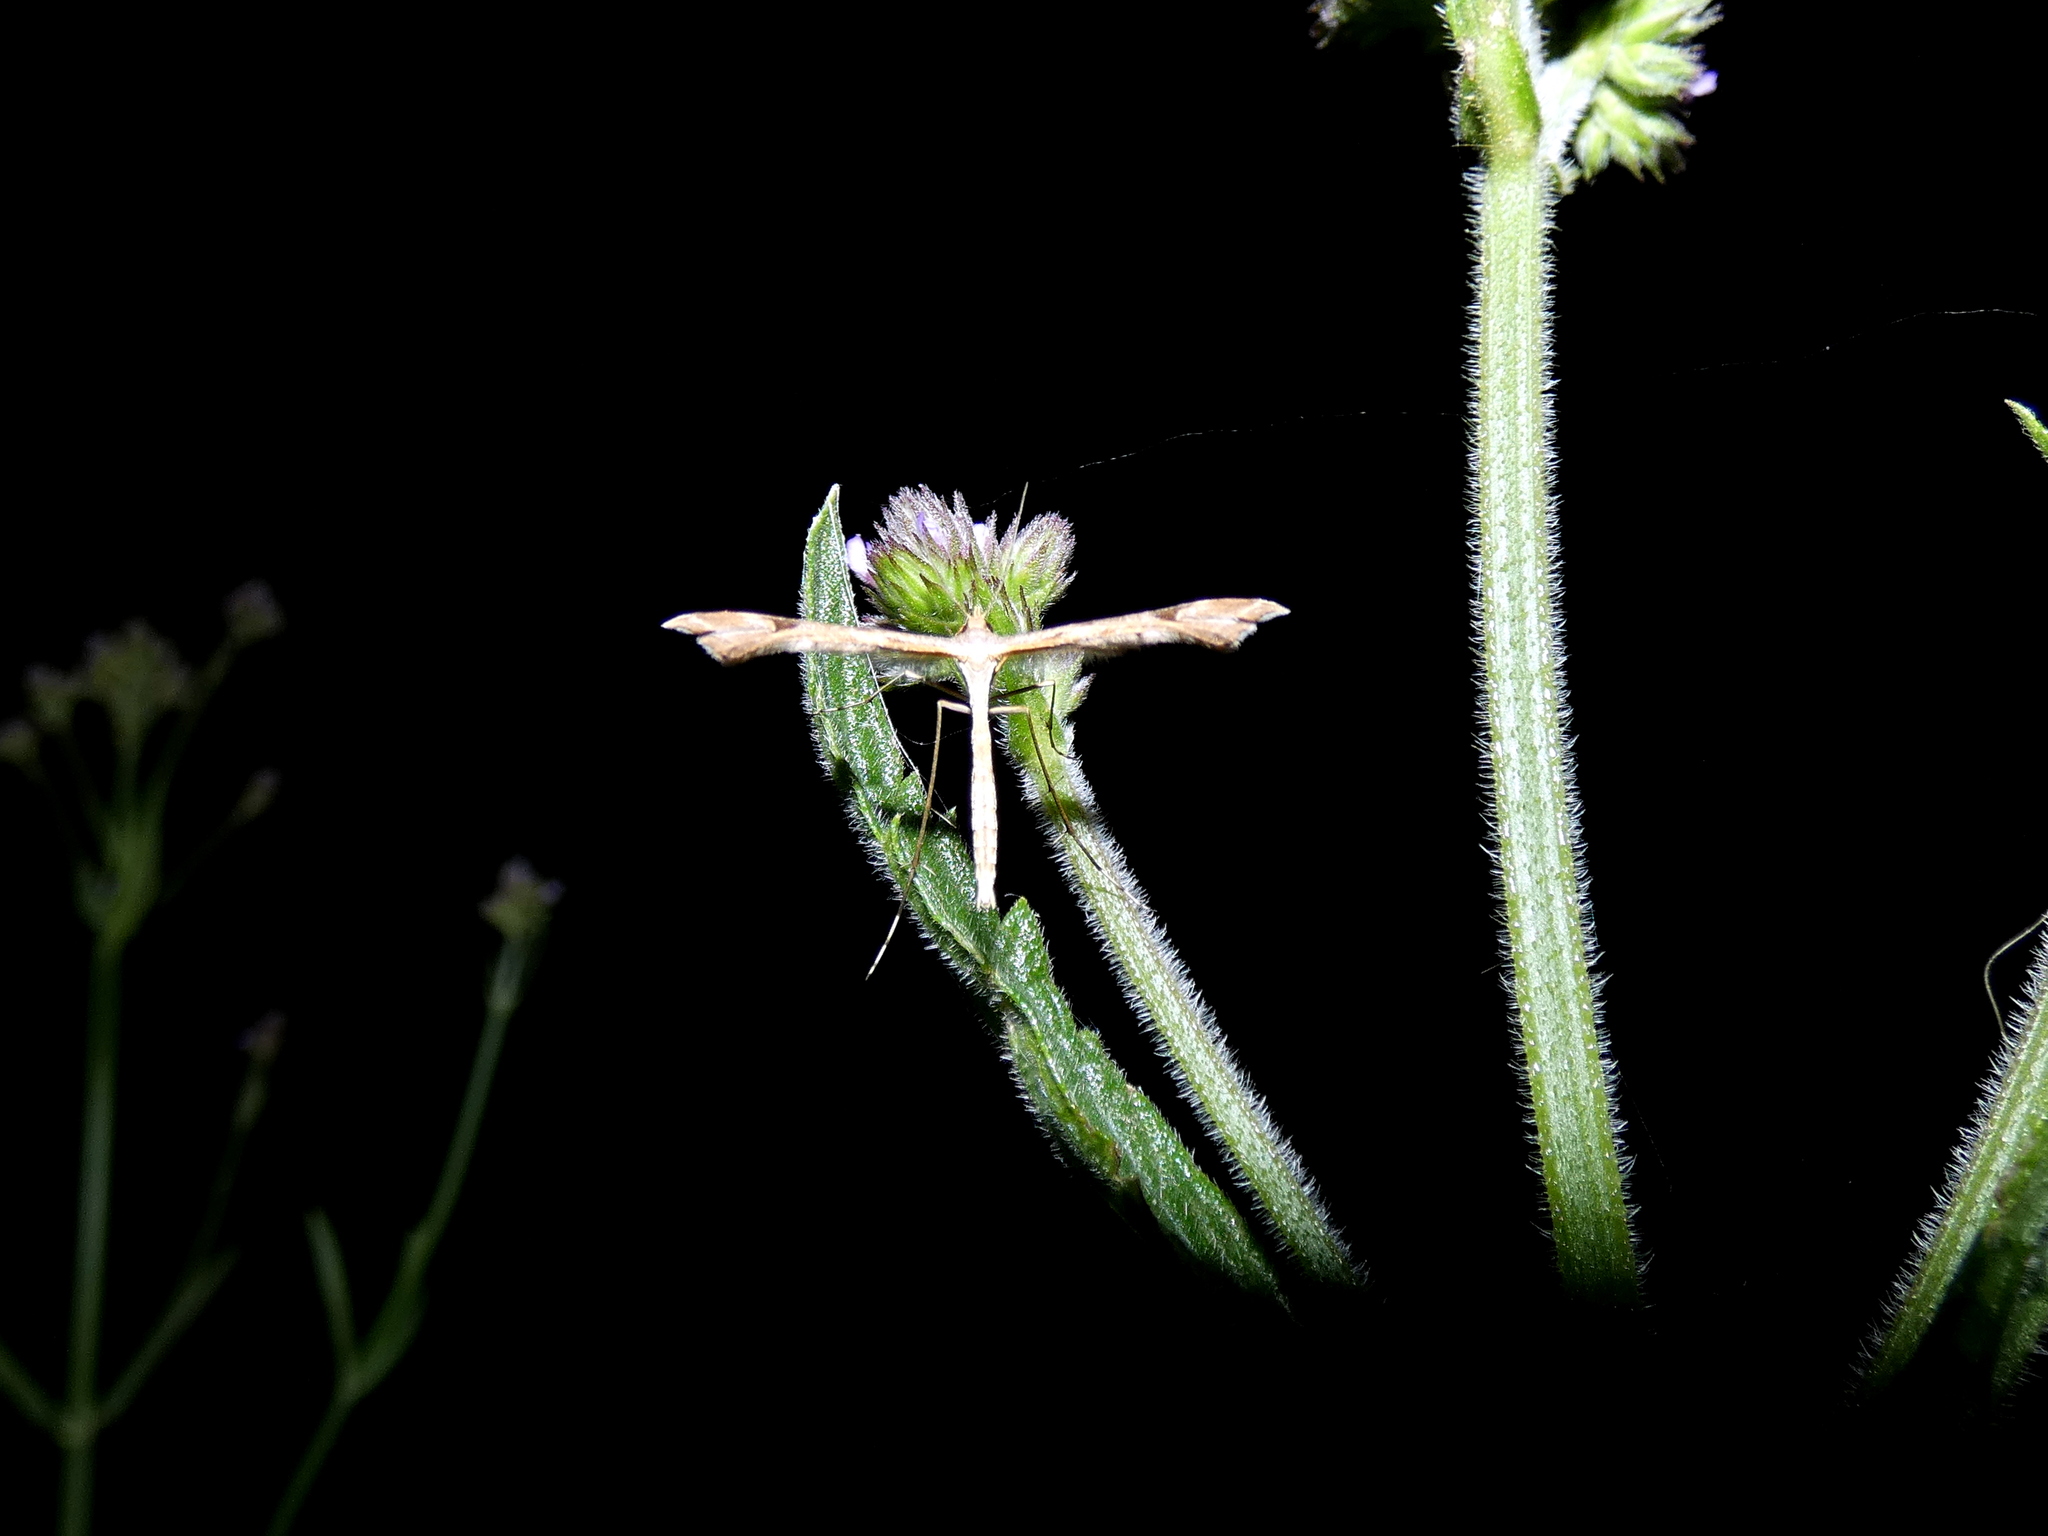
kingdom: Animalia
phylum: Arthropoda
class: Insecta
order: Lepidoptera
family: Pterophoridae
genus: Sinpunctiptilia
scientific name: Sinpunctiptilia emissalis
